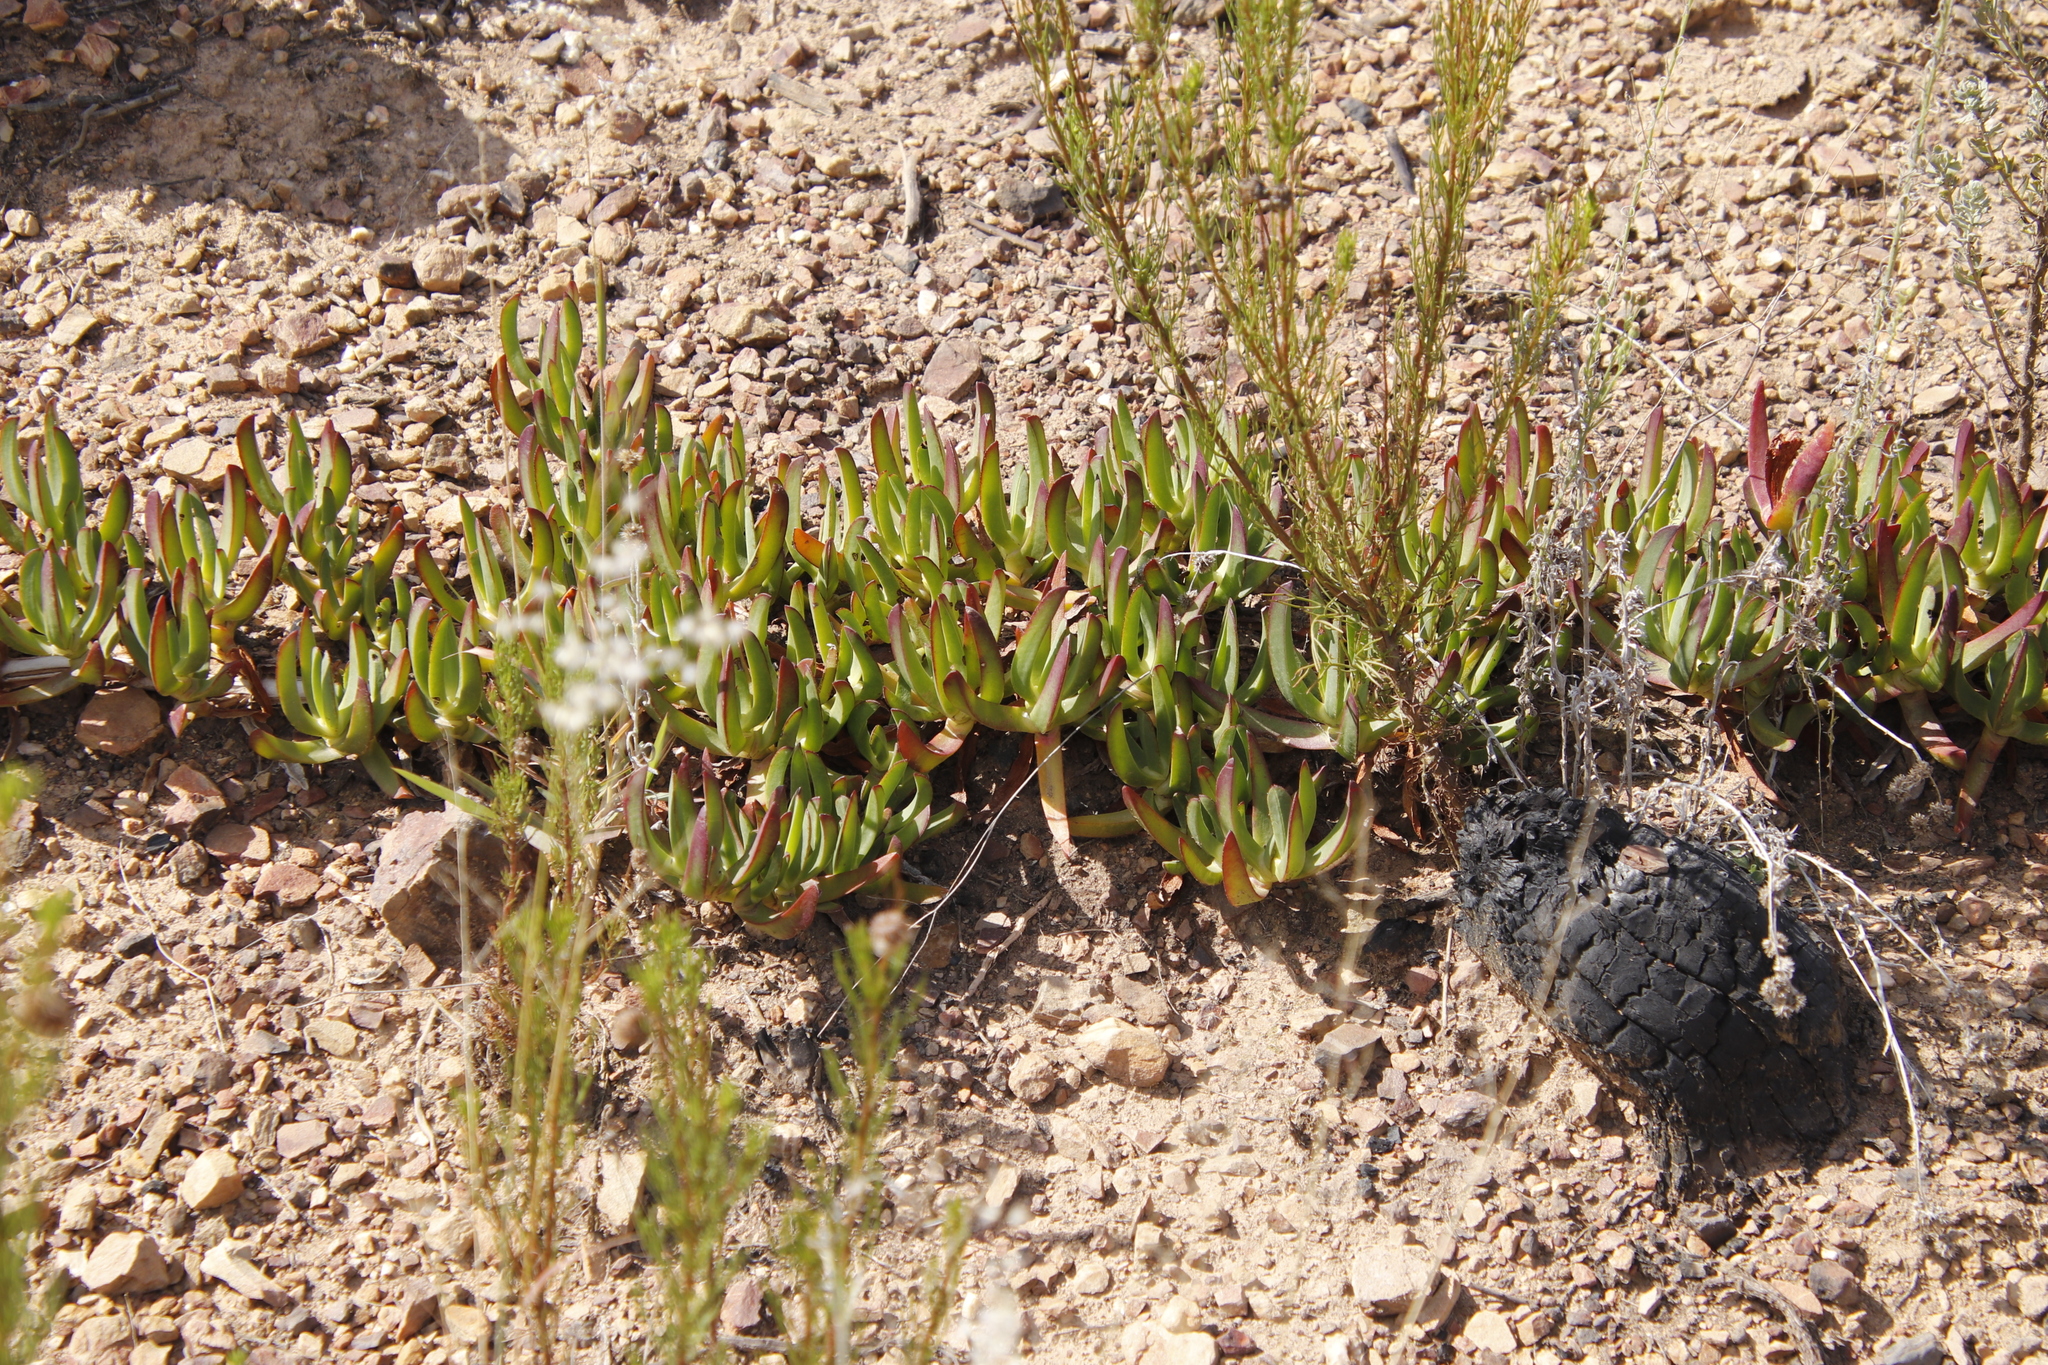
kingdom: Plantae
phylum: Tracheophyta
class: Magnoliopsida
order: Caryophyllales
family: Aizoaceae
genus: Carpobrotus
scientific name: Carpobrotus edulis
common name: Hottentot-fig
